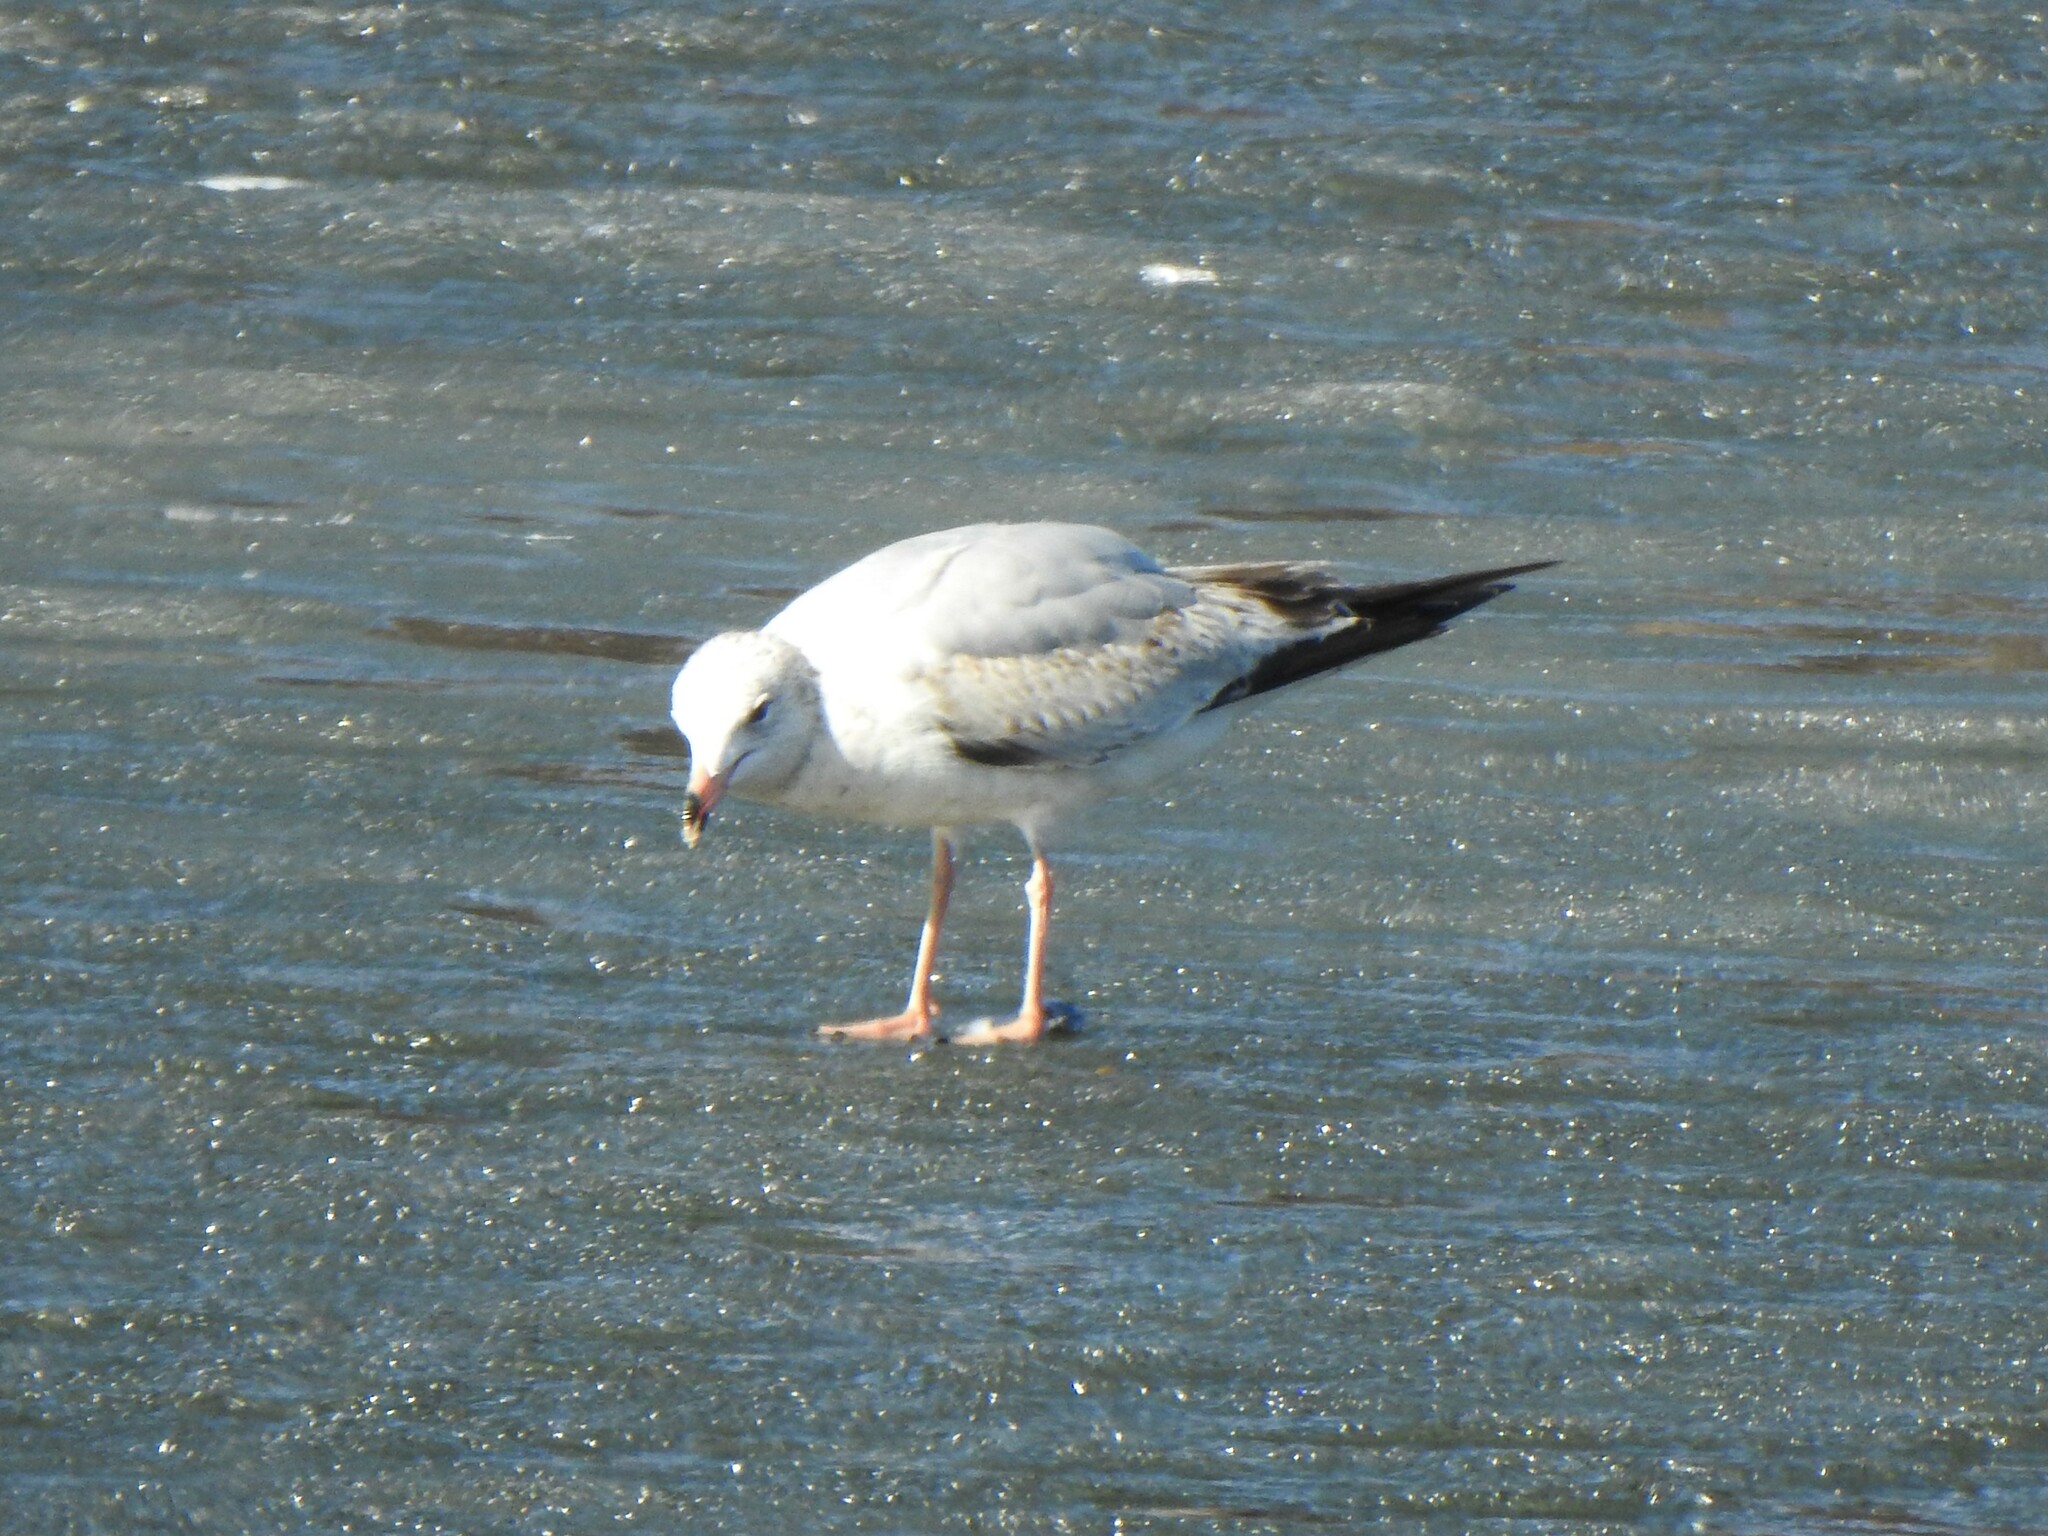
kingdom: Animalia
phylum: Chordata
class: Aves
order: Charadriiformes
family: Laridae
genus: Larus
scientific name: Larus delawarensis
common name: Ring-billed gull
